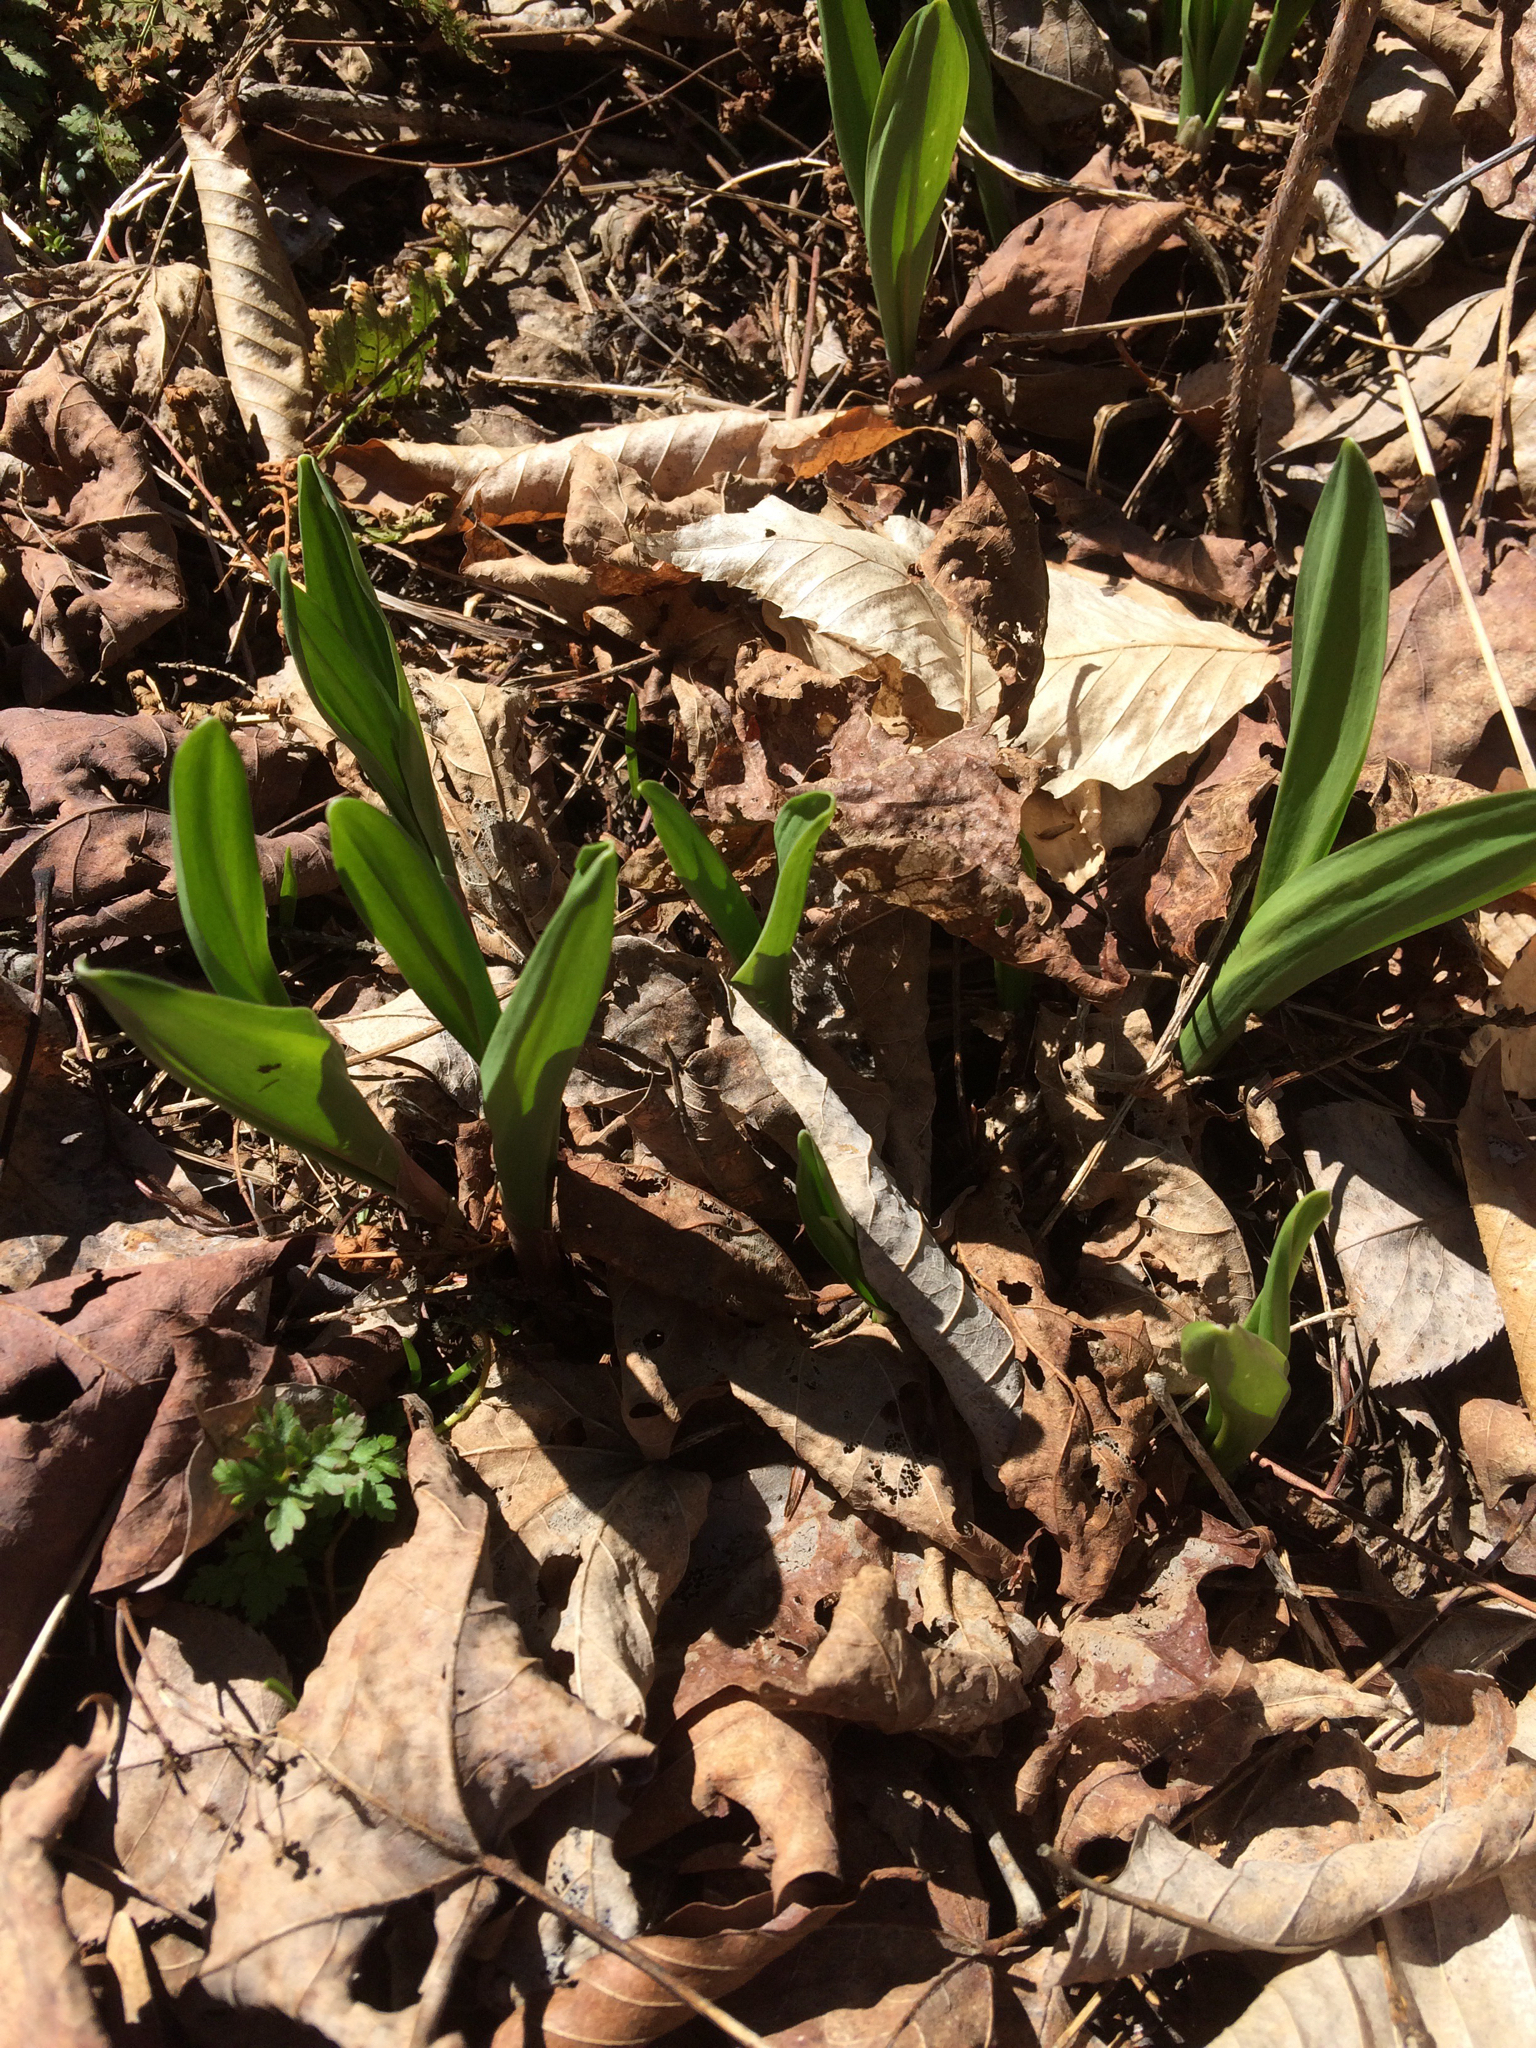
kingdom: Plantae
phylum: Tracheophyta
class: Liliopsida
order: Asparagales
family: Amaryllidaceae
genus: Allium
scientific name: Allium tricoccum
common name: Ramp
